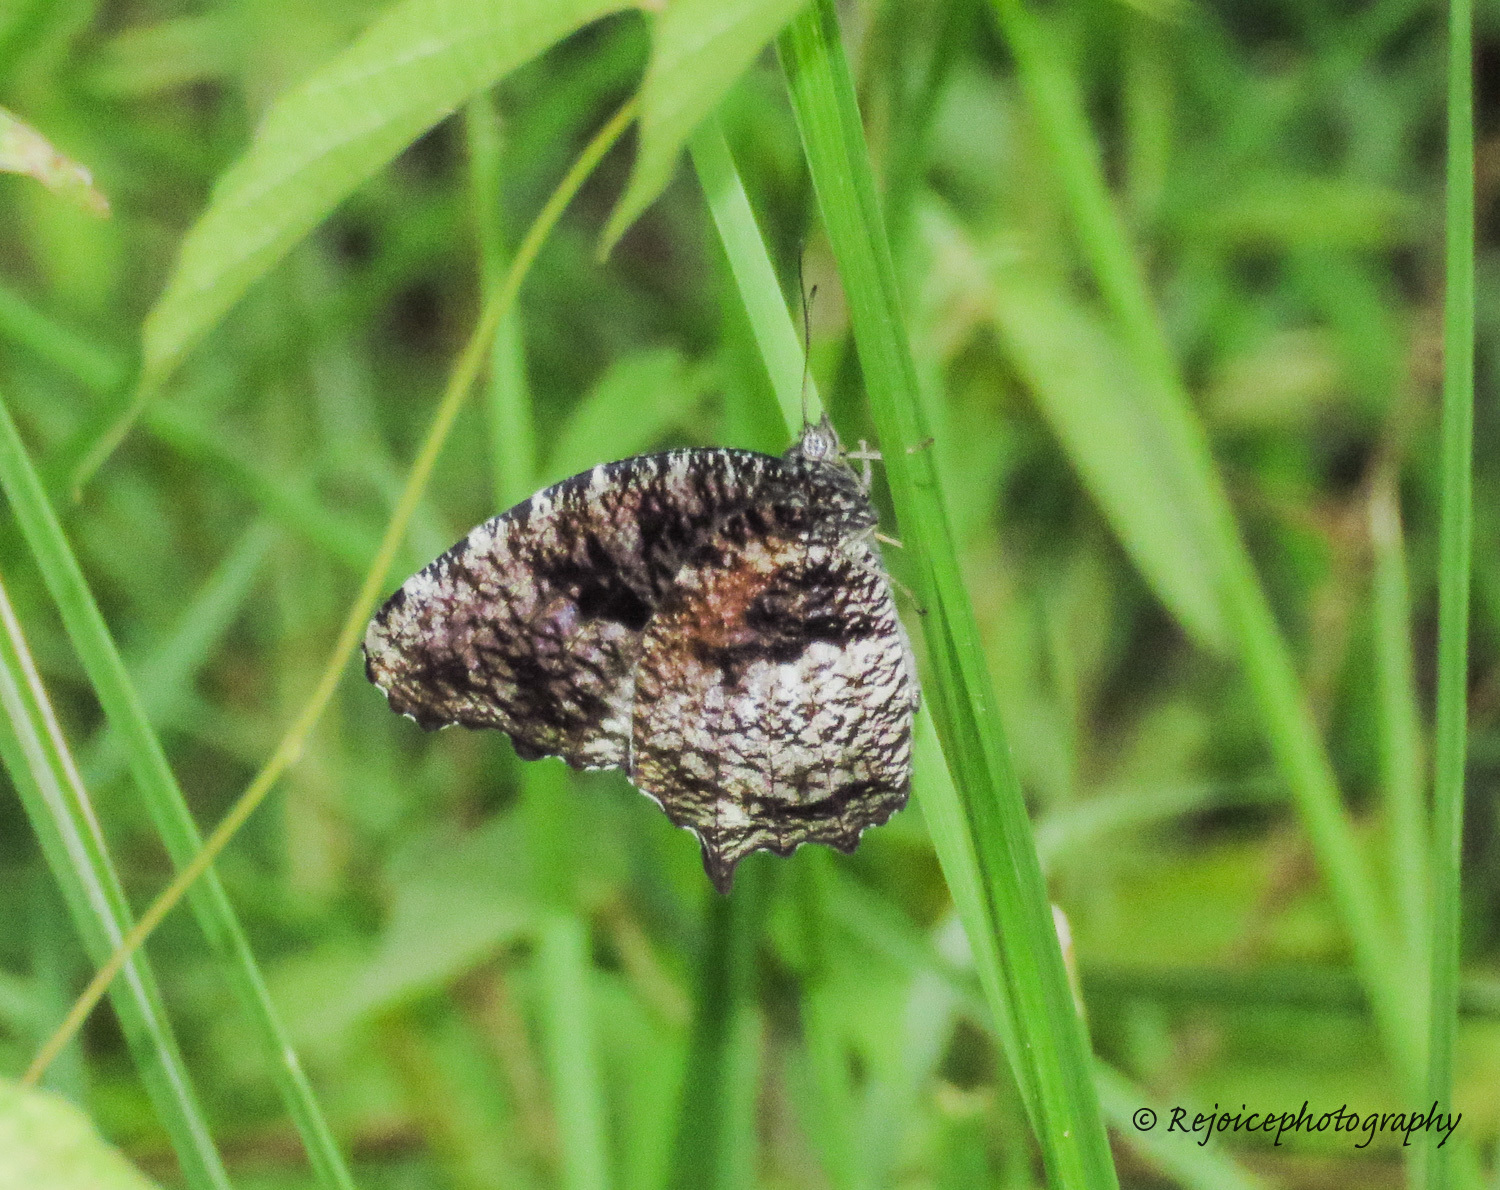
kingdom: Animalia
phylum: Arthropoda
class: Insecta
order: Lepidoptera
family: Nymphalidae
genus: Elymnias
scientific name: Elymnias nesaea
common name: Tiger palmfly
